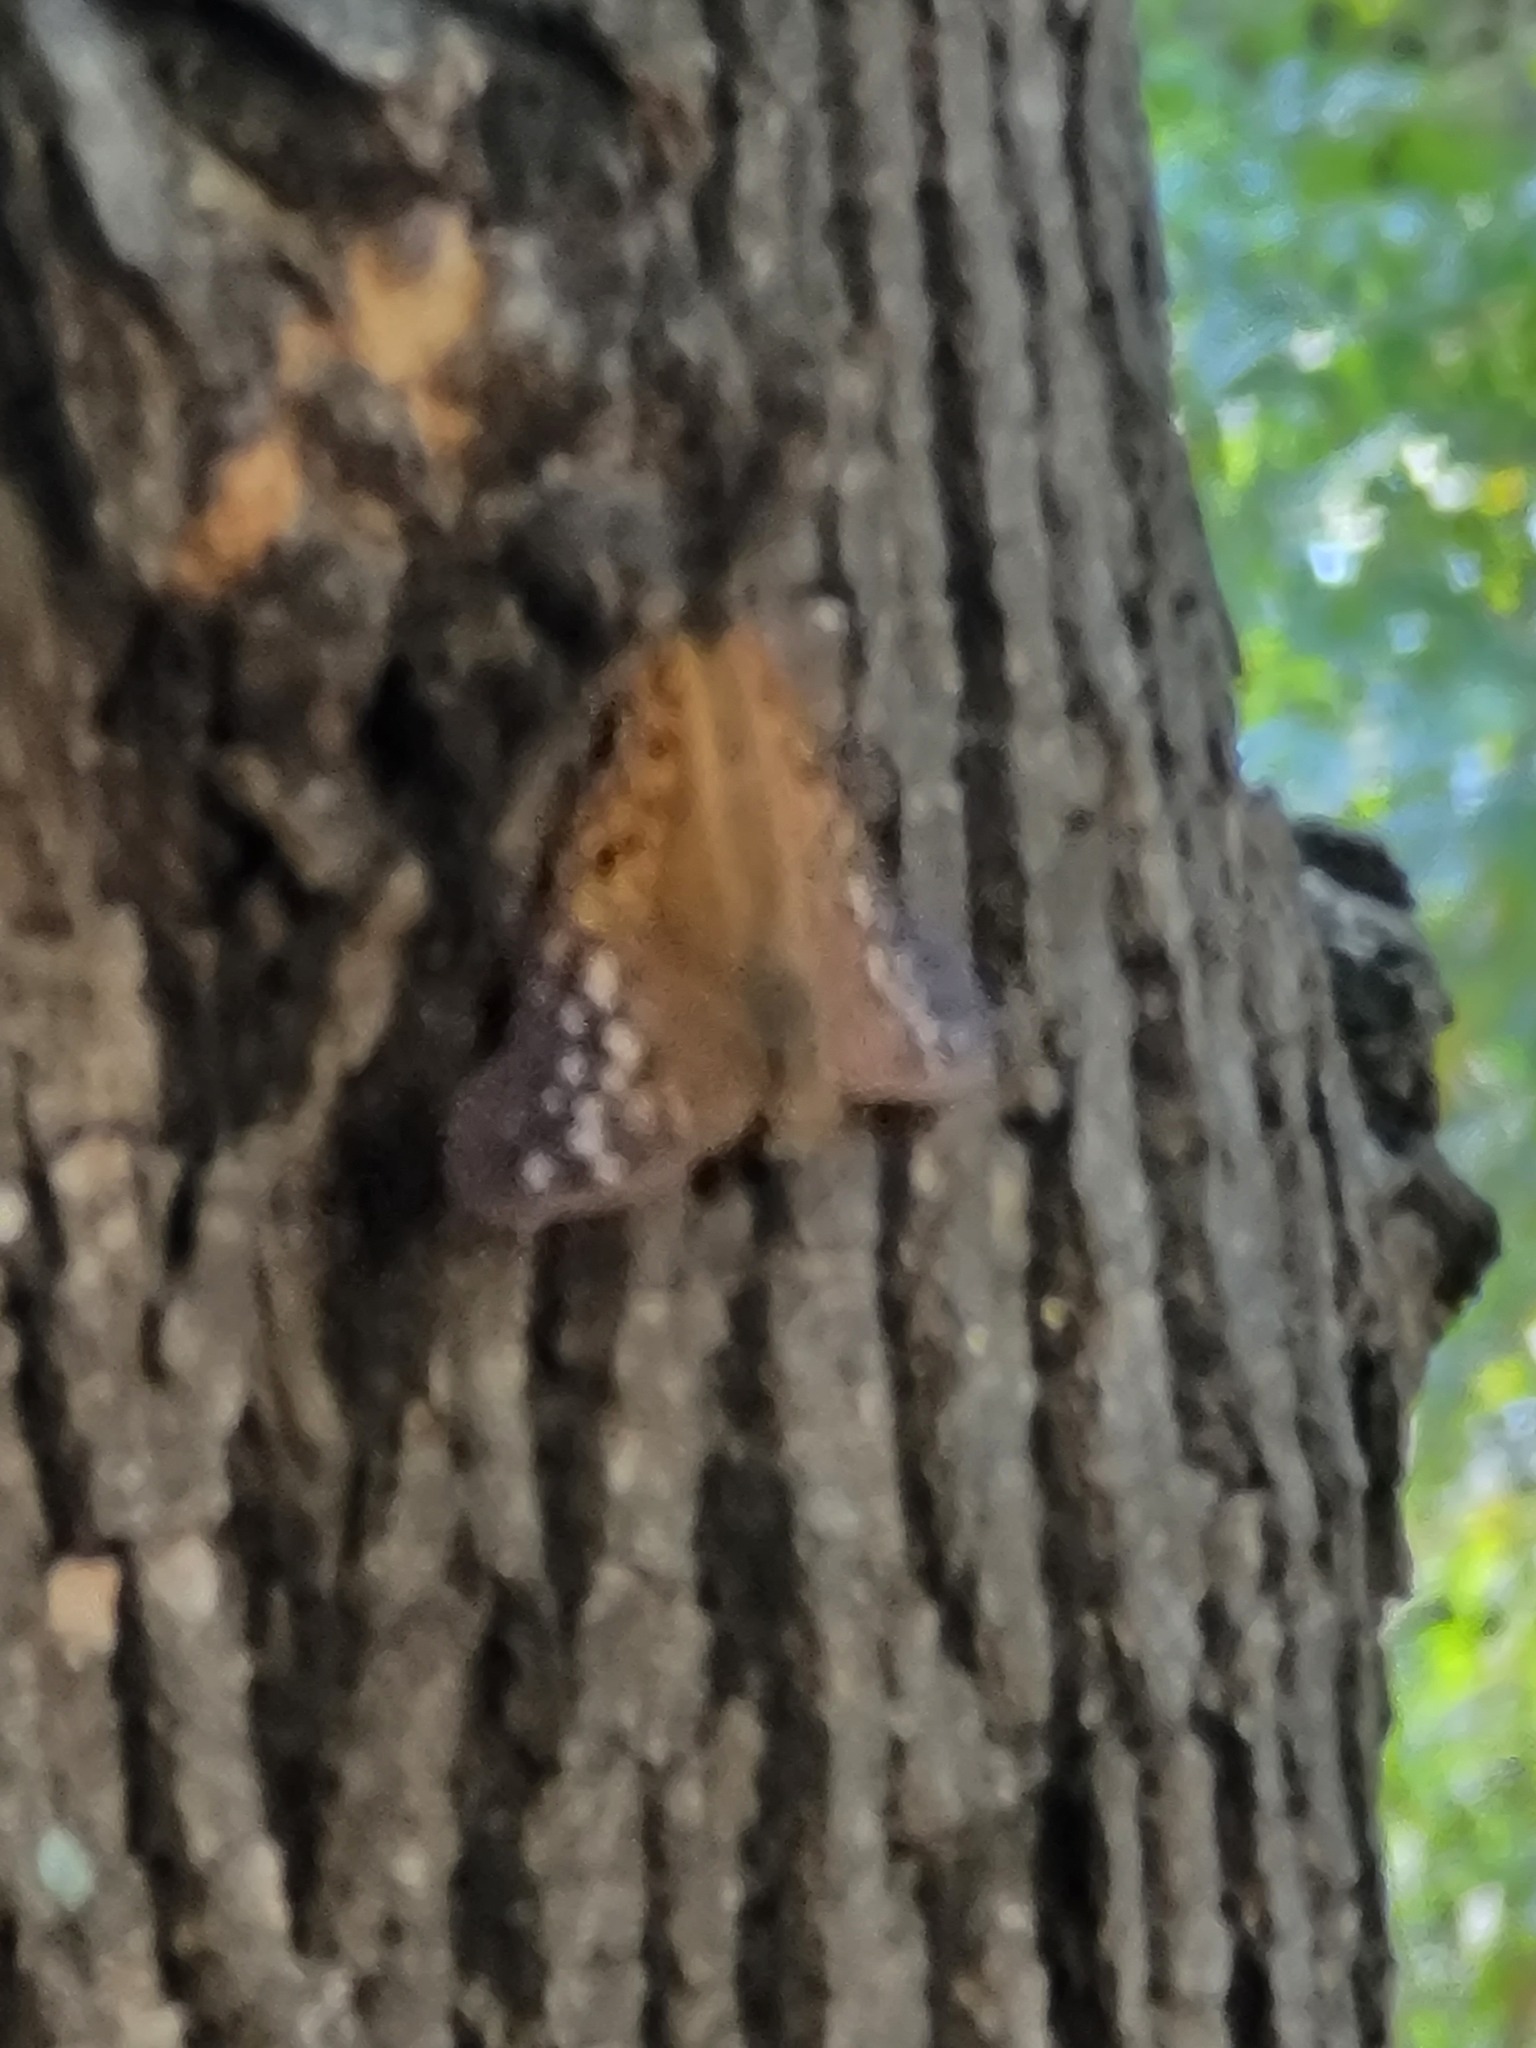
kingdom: Animalia
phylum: Arthropoda
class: Insecta
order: Lepidoptera
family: Nymphalidae
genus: Asterocampa
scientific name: Asterocampa clyton
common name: Tawny emperor
